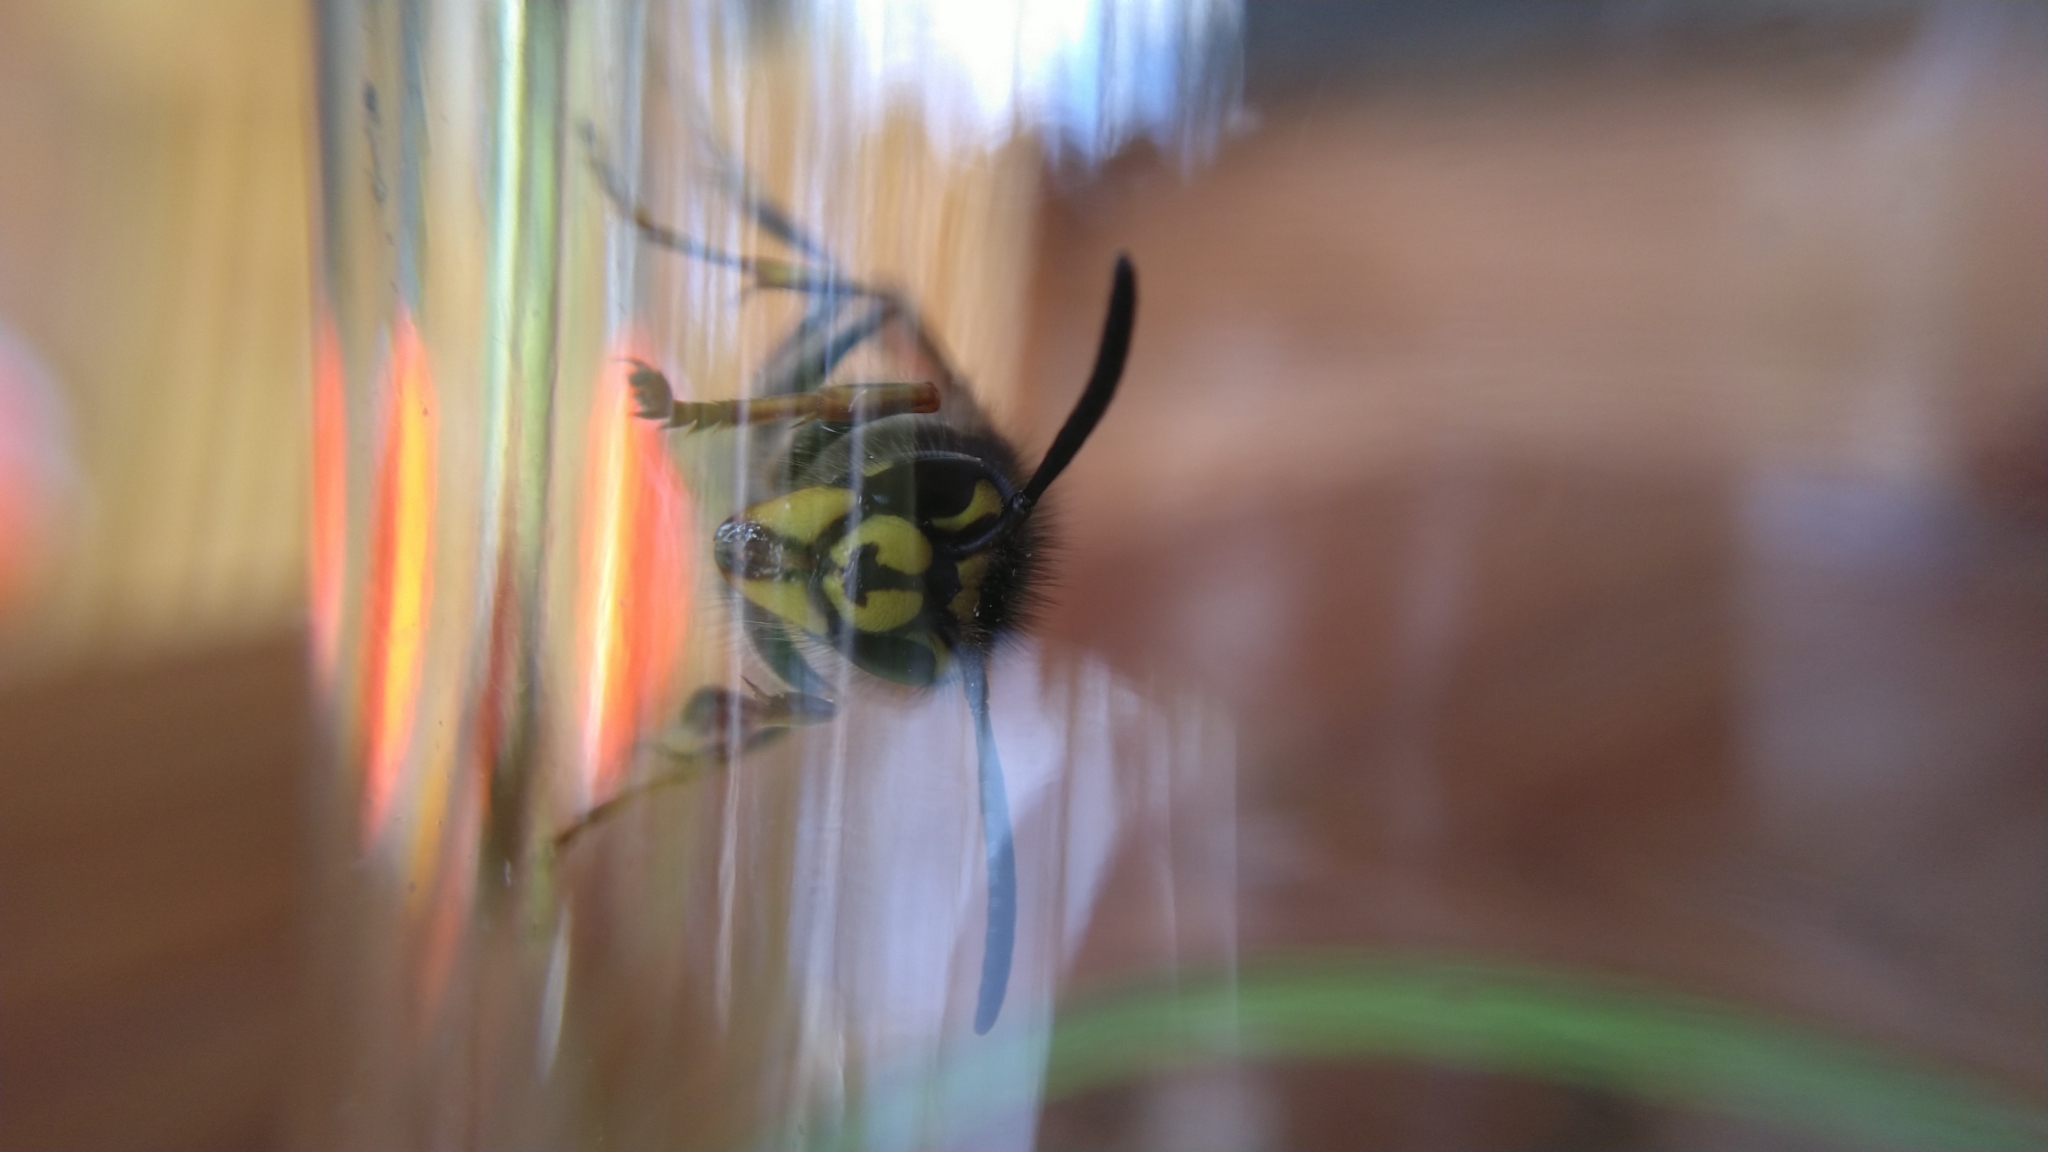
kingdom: Animalia
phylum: Arthropoda
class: Insecta
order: Hymenoptera
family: Vespidae
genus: Vespula
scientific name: Vespula vulgaris
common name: Common wasp
